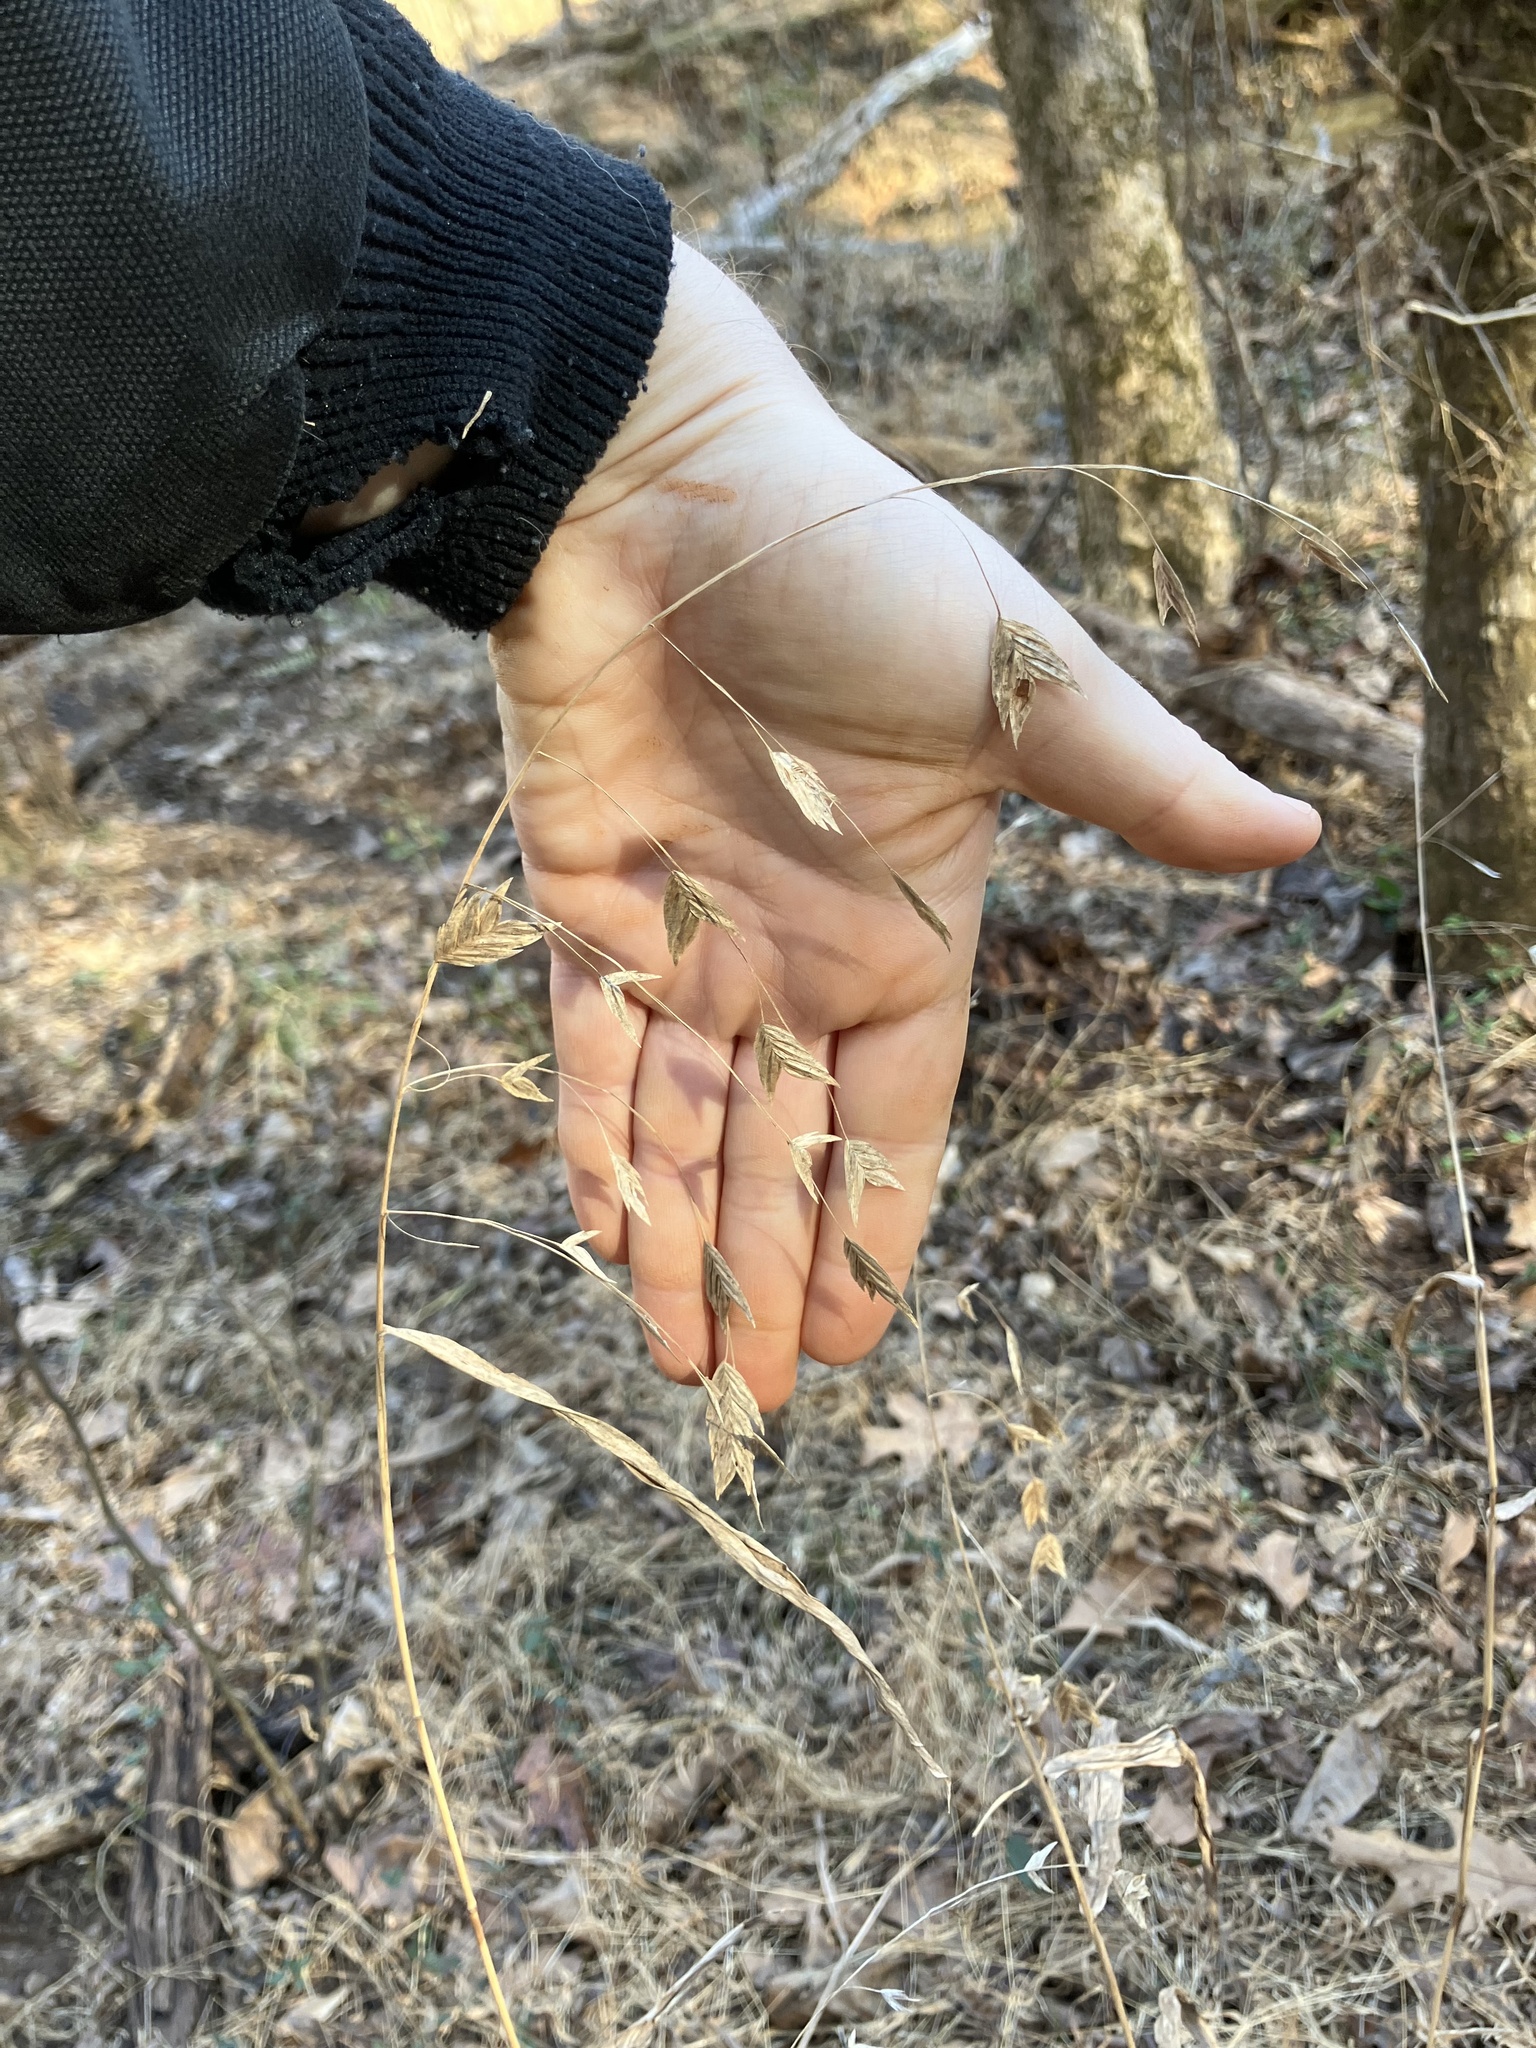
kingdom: Plantae
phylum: Tracheophyta
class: Liliopsida
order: Poales
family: Poaceae
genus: Chasmanthium
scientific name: Chasmanthium latifolium
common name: Broad-leaved chasmanthium
